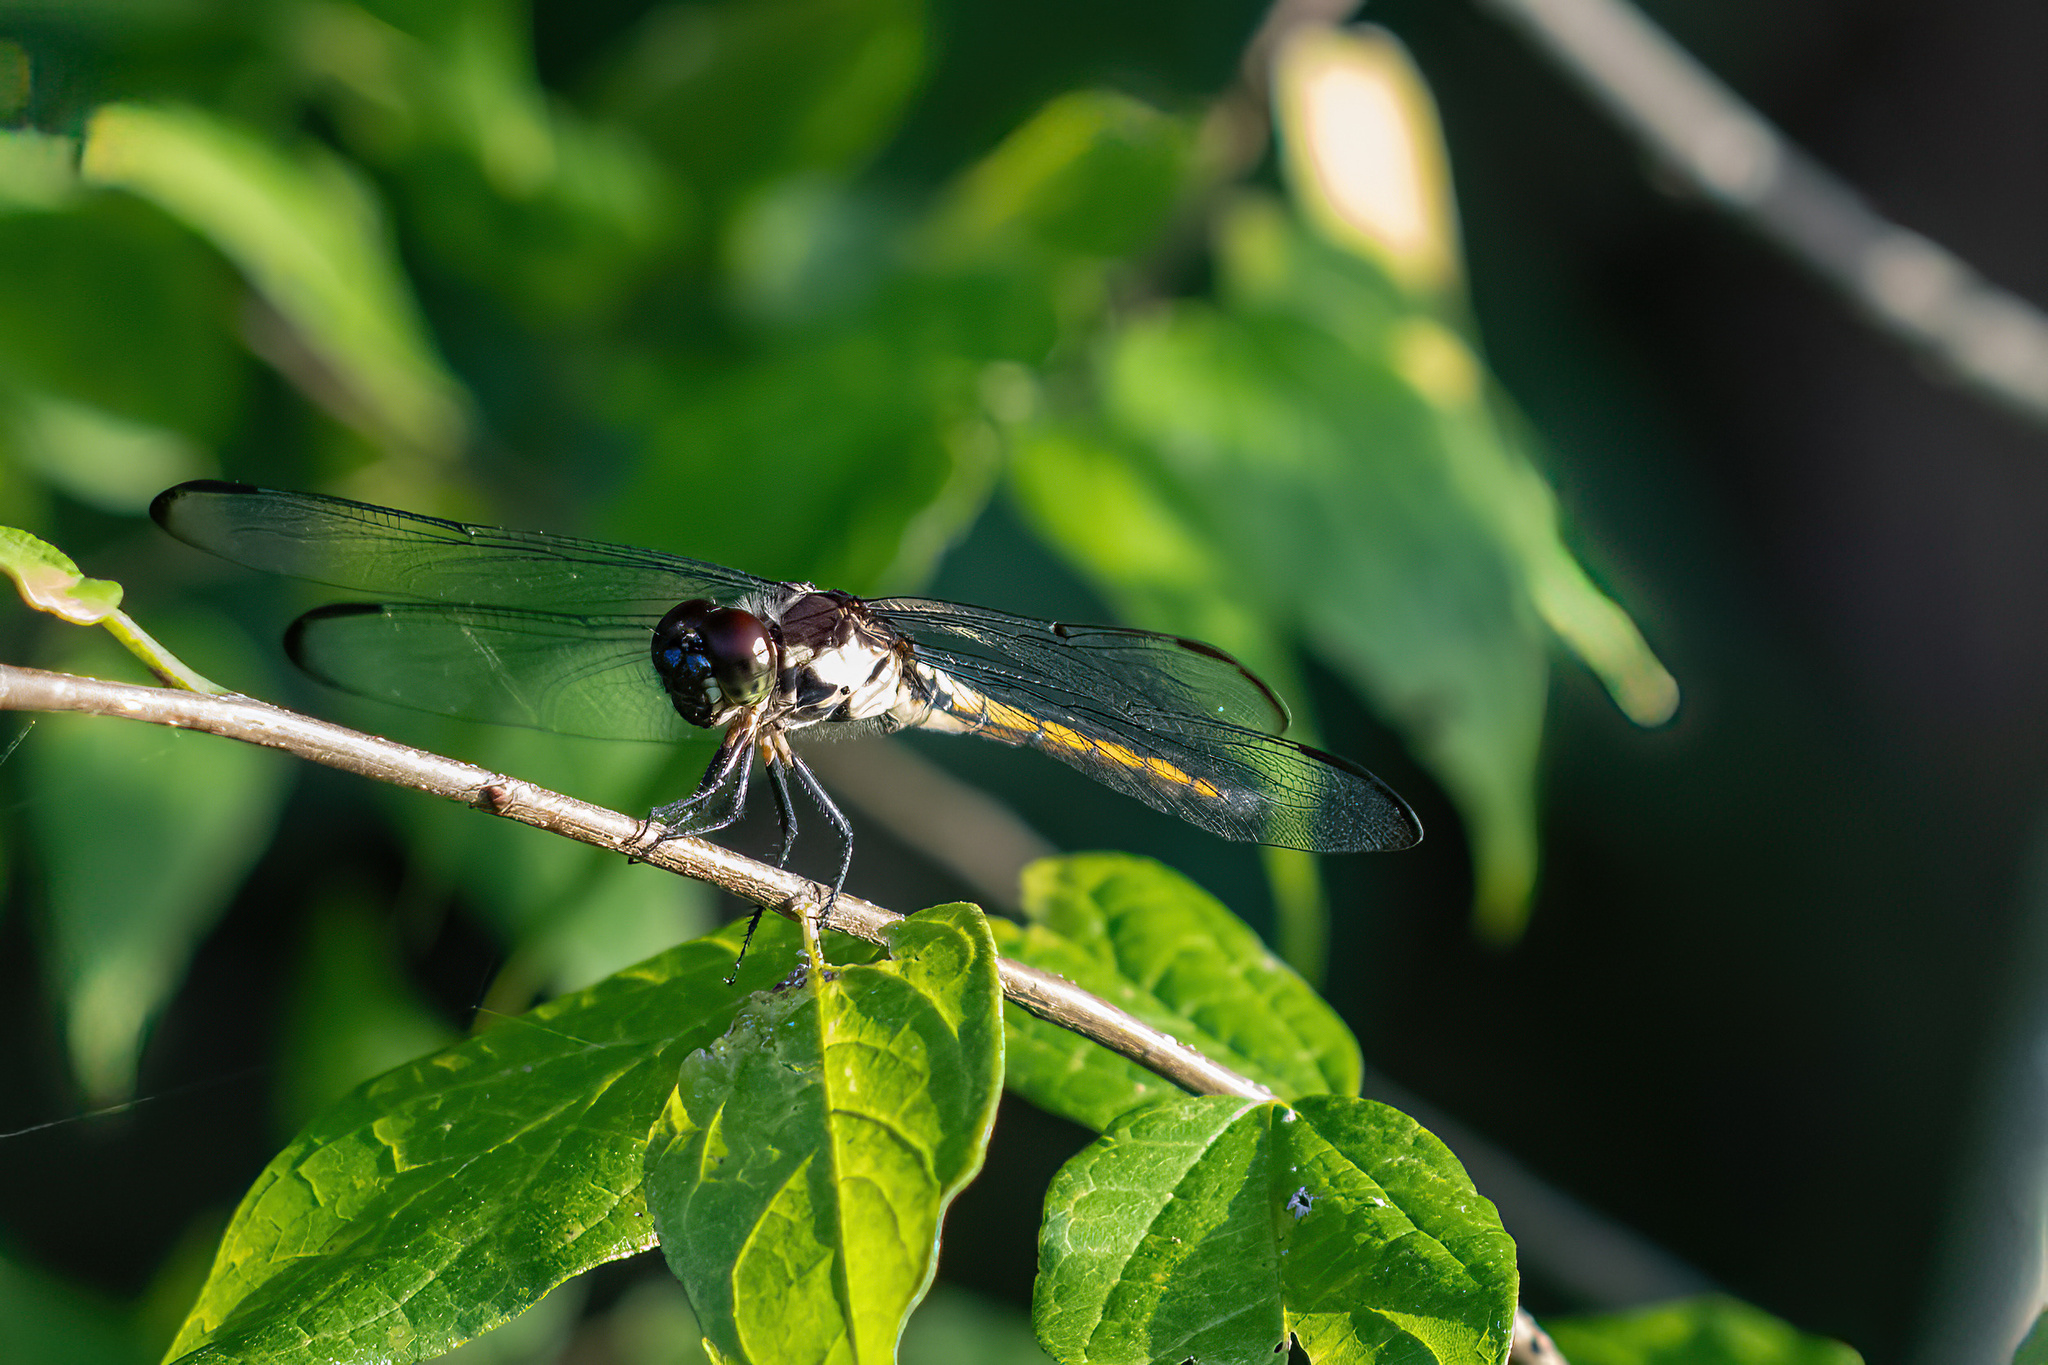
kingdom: Animalia
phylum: Arthropoda
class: Insecta
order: Odonata
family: Libellulidae
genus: Libellula
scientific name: Libellula incesta
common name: Slaty skimmer
